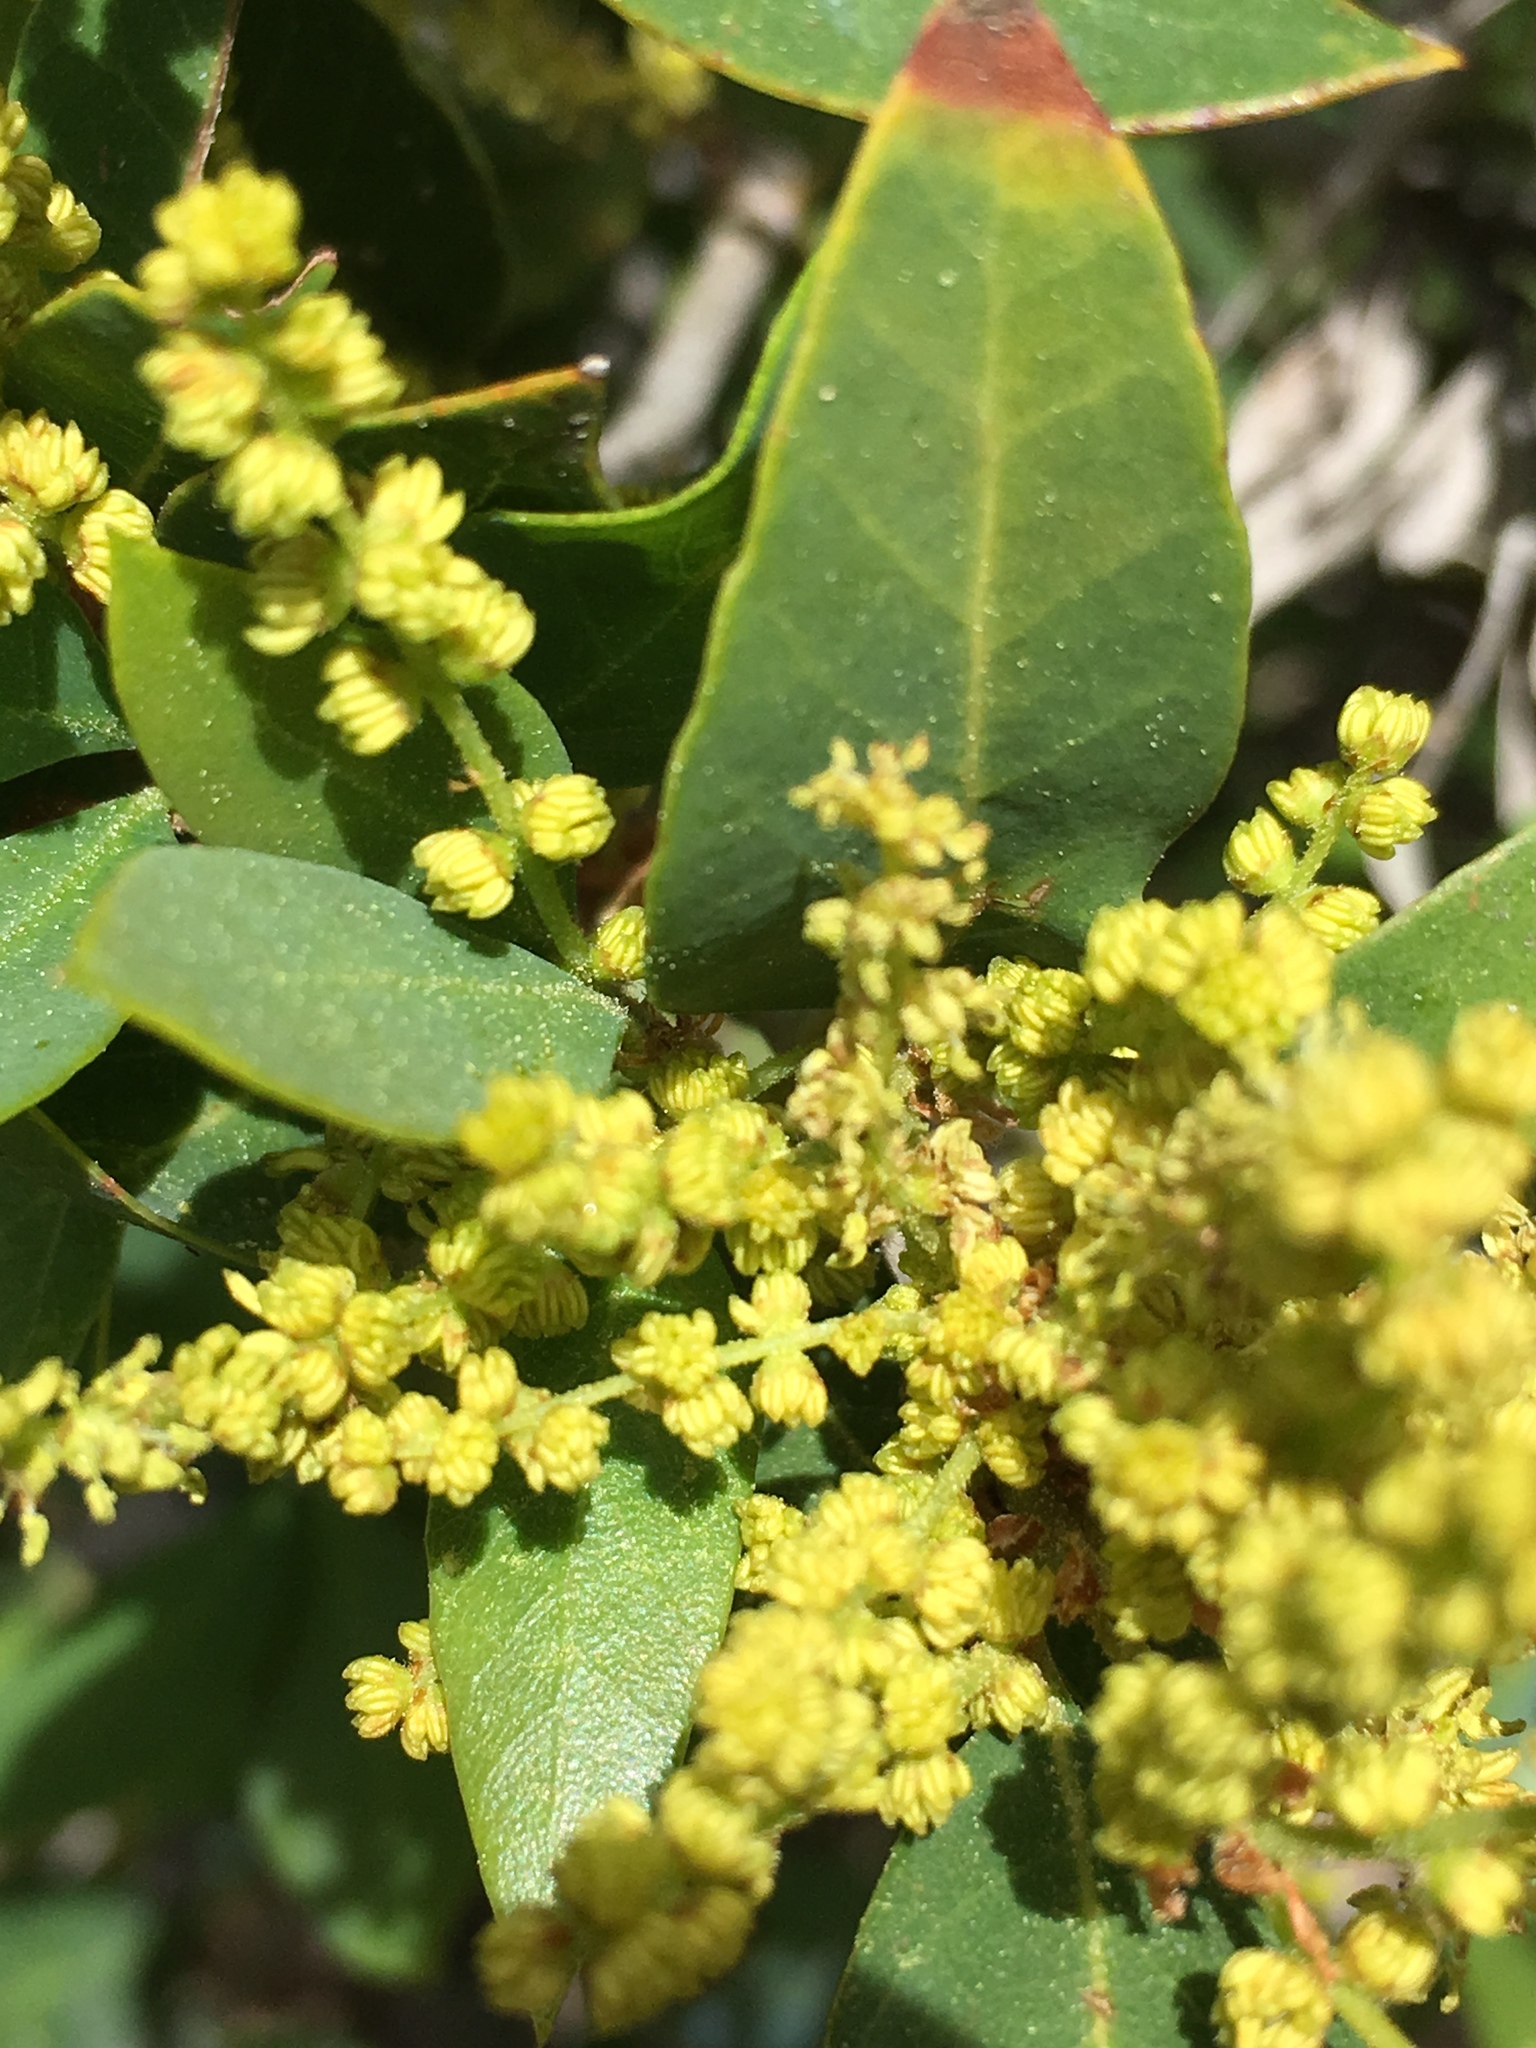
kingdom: Plantae
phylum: Tracheophyta
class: Magnoliopsida
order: Fagales
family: Fagaceae
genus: Quercus
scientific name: Quercus vacciniifolia
